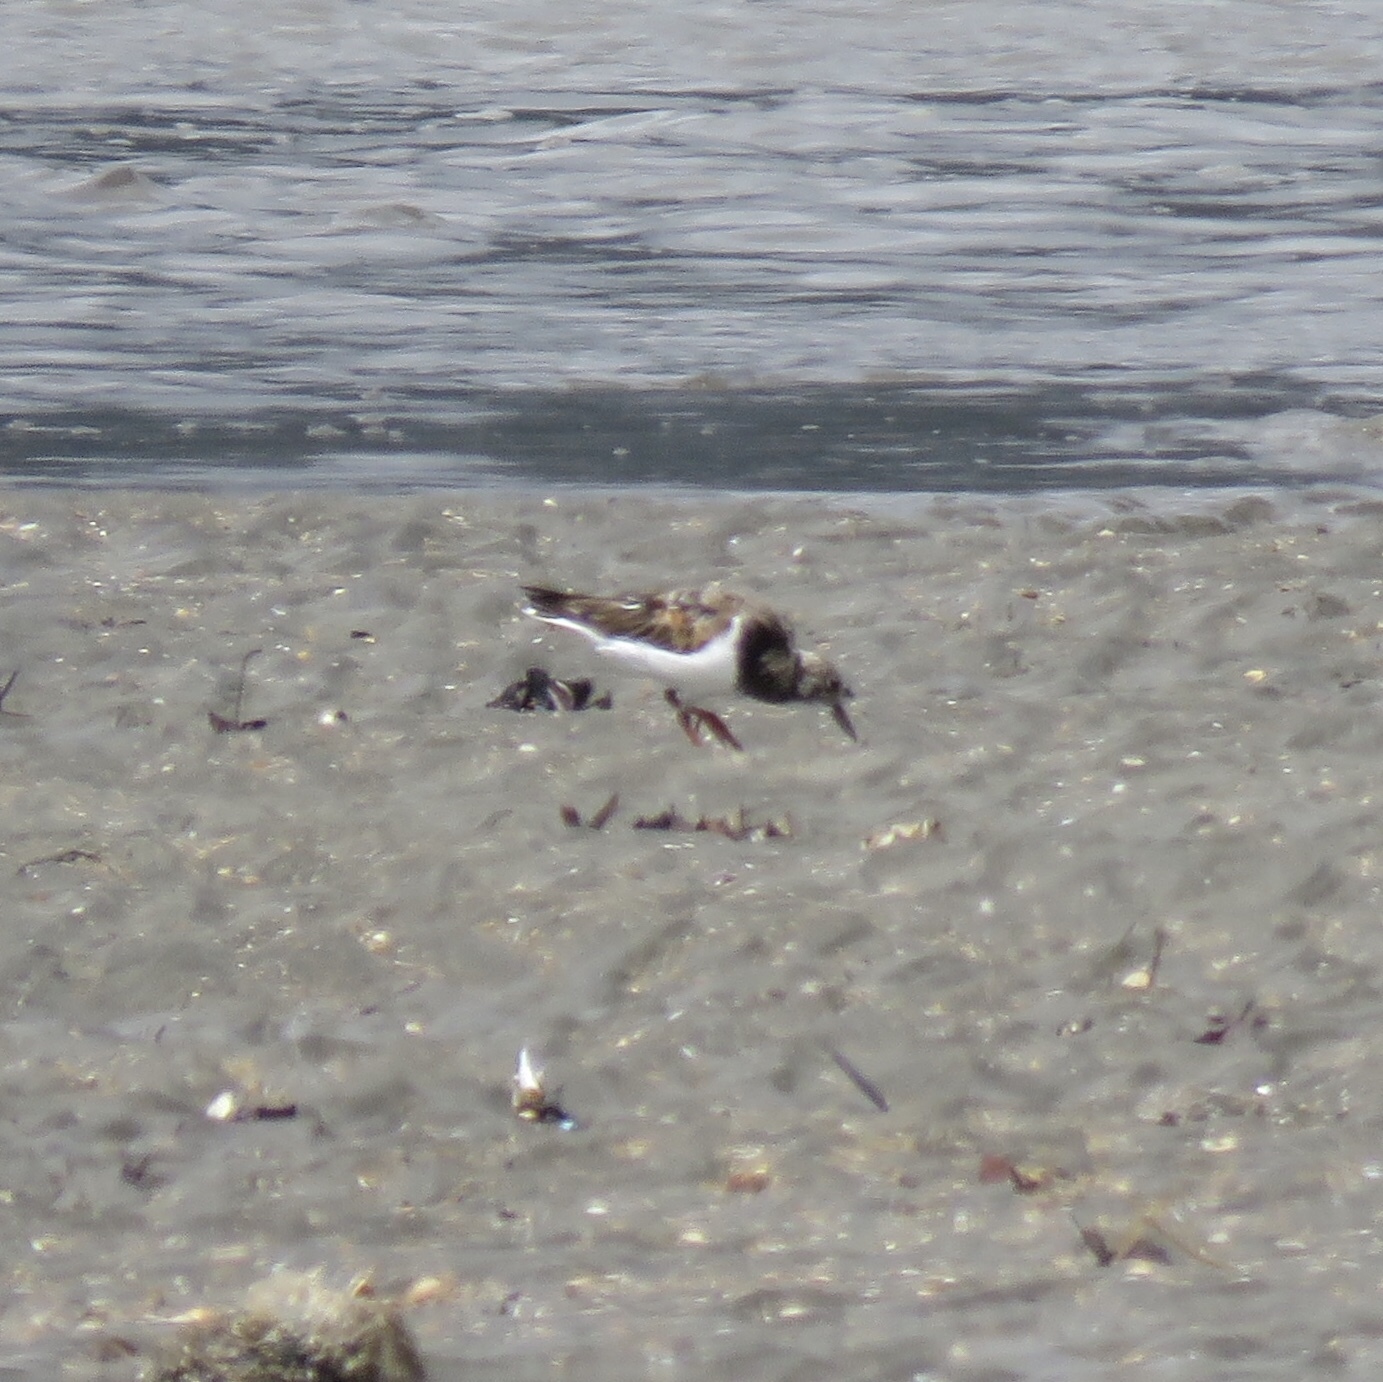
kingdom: Animalia
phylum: Chordata
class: Aves
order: Charadriiformes
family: Scolopacidae
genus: Arenaria
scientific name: Arenaria interpres
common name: Ruddy turnstone
